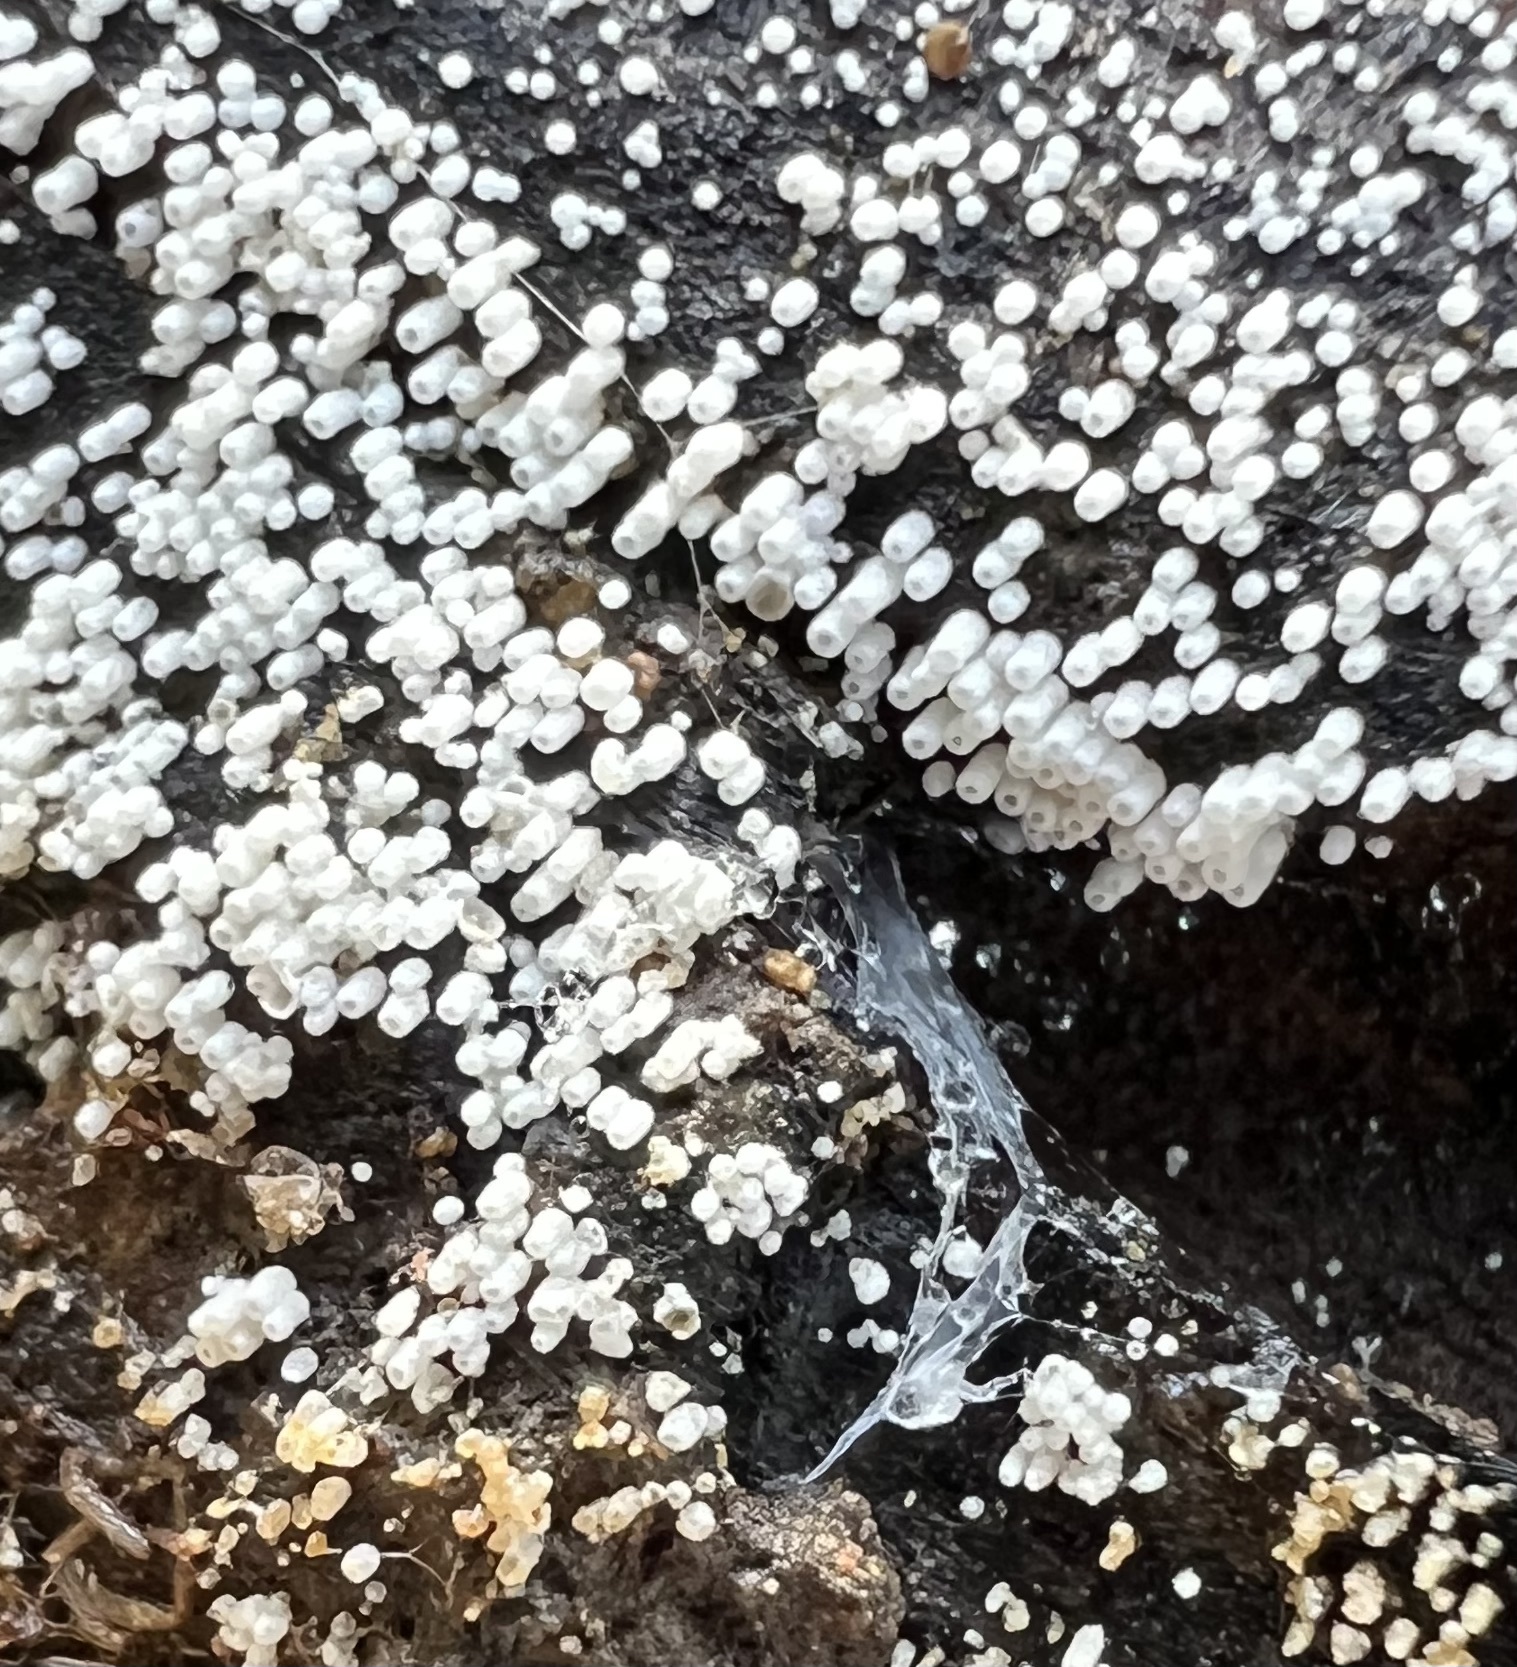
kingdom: Fungi
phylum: Basidiomycota
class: Agaricomycetes
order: Agaricales
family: Marasmiaceae
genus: Henningsomyces
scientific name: Henningsomyces candidus
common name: White tubelet
